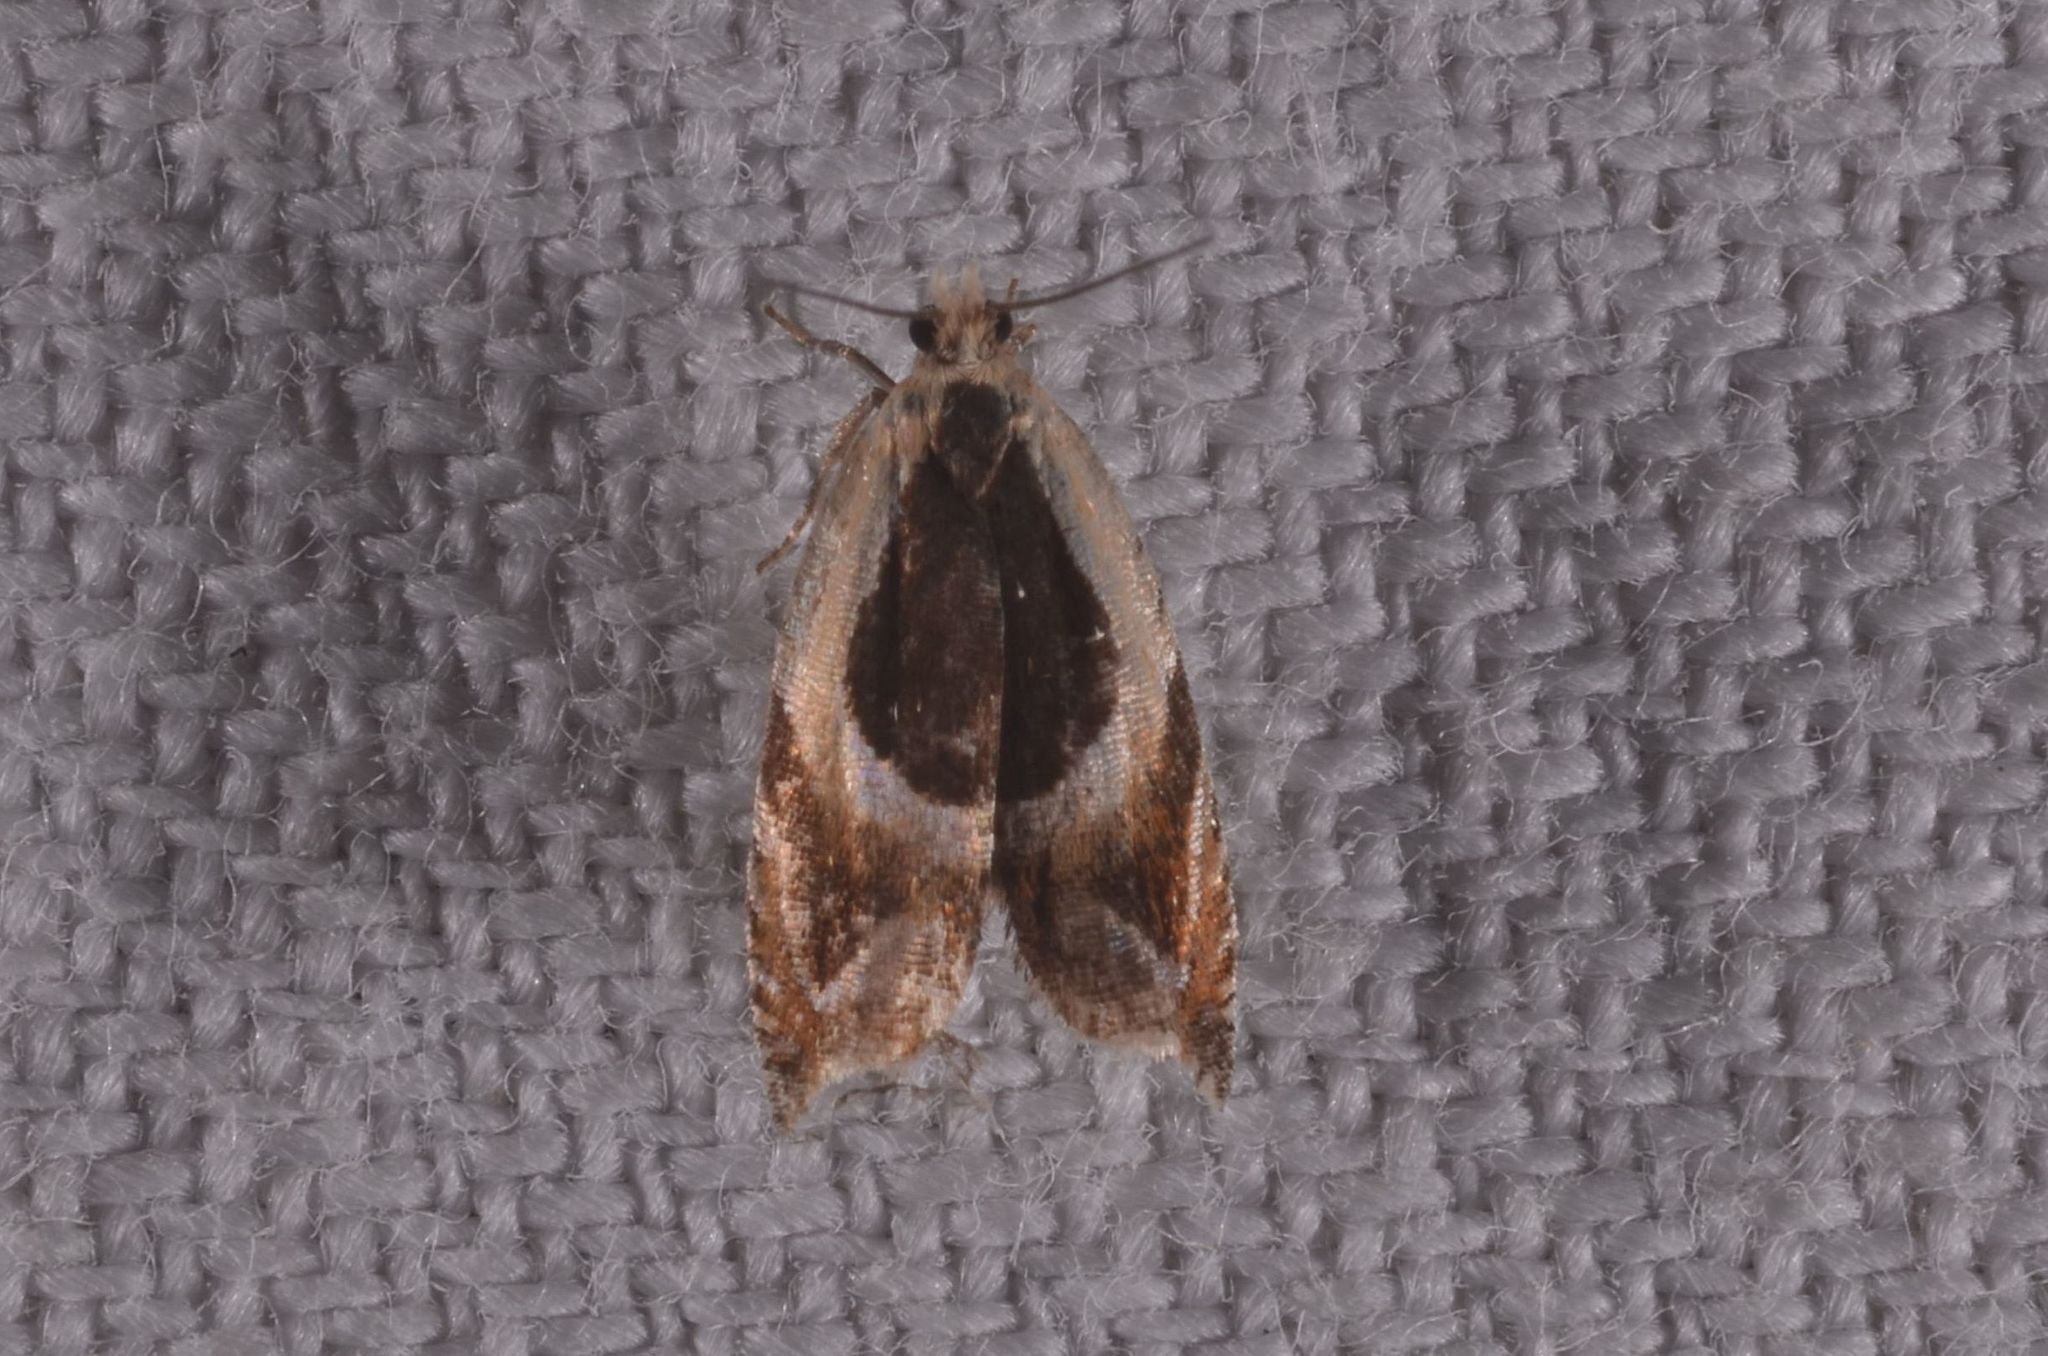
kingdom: Animalia
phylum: Arthropoda
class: Insecta
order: Lepidoptera
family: Tortricidae
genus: Ancylis
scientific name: Ancylis badiana
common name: Common roller
